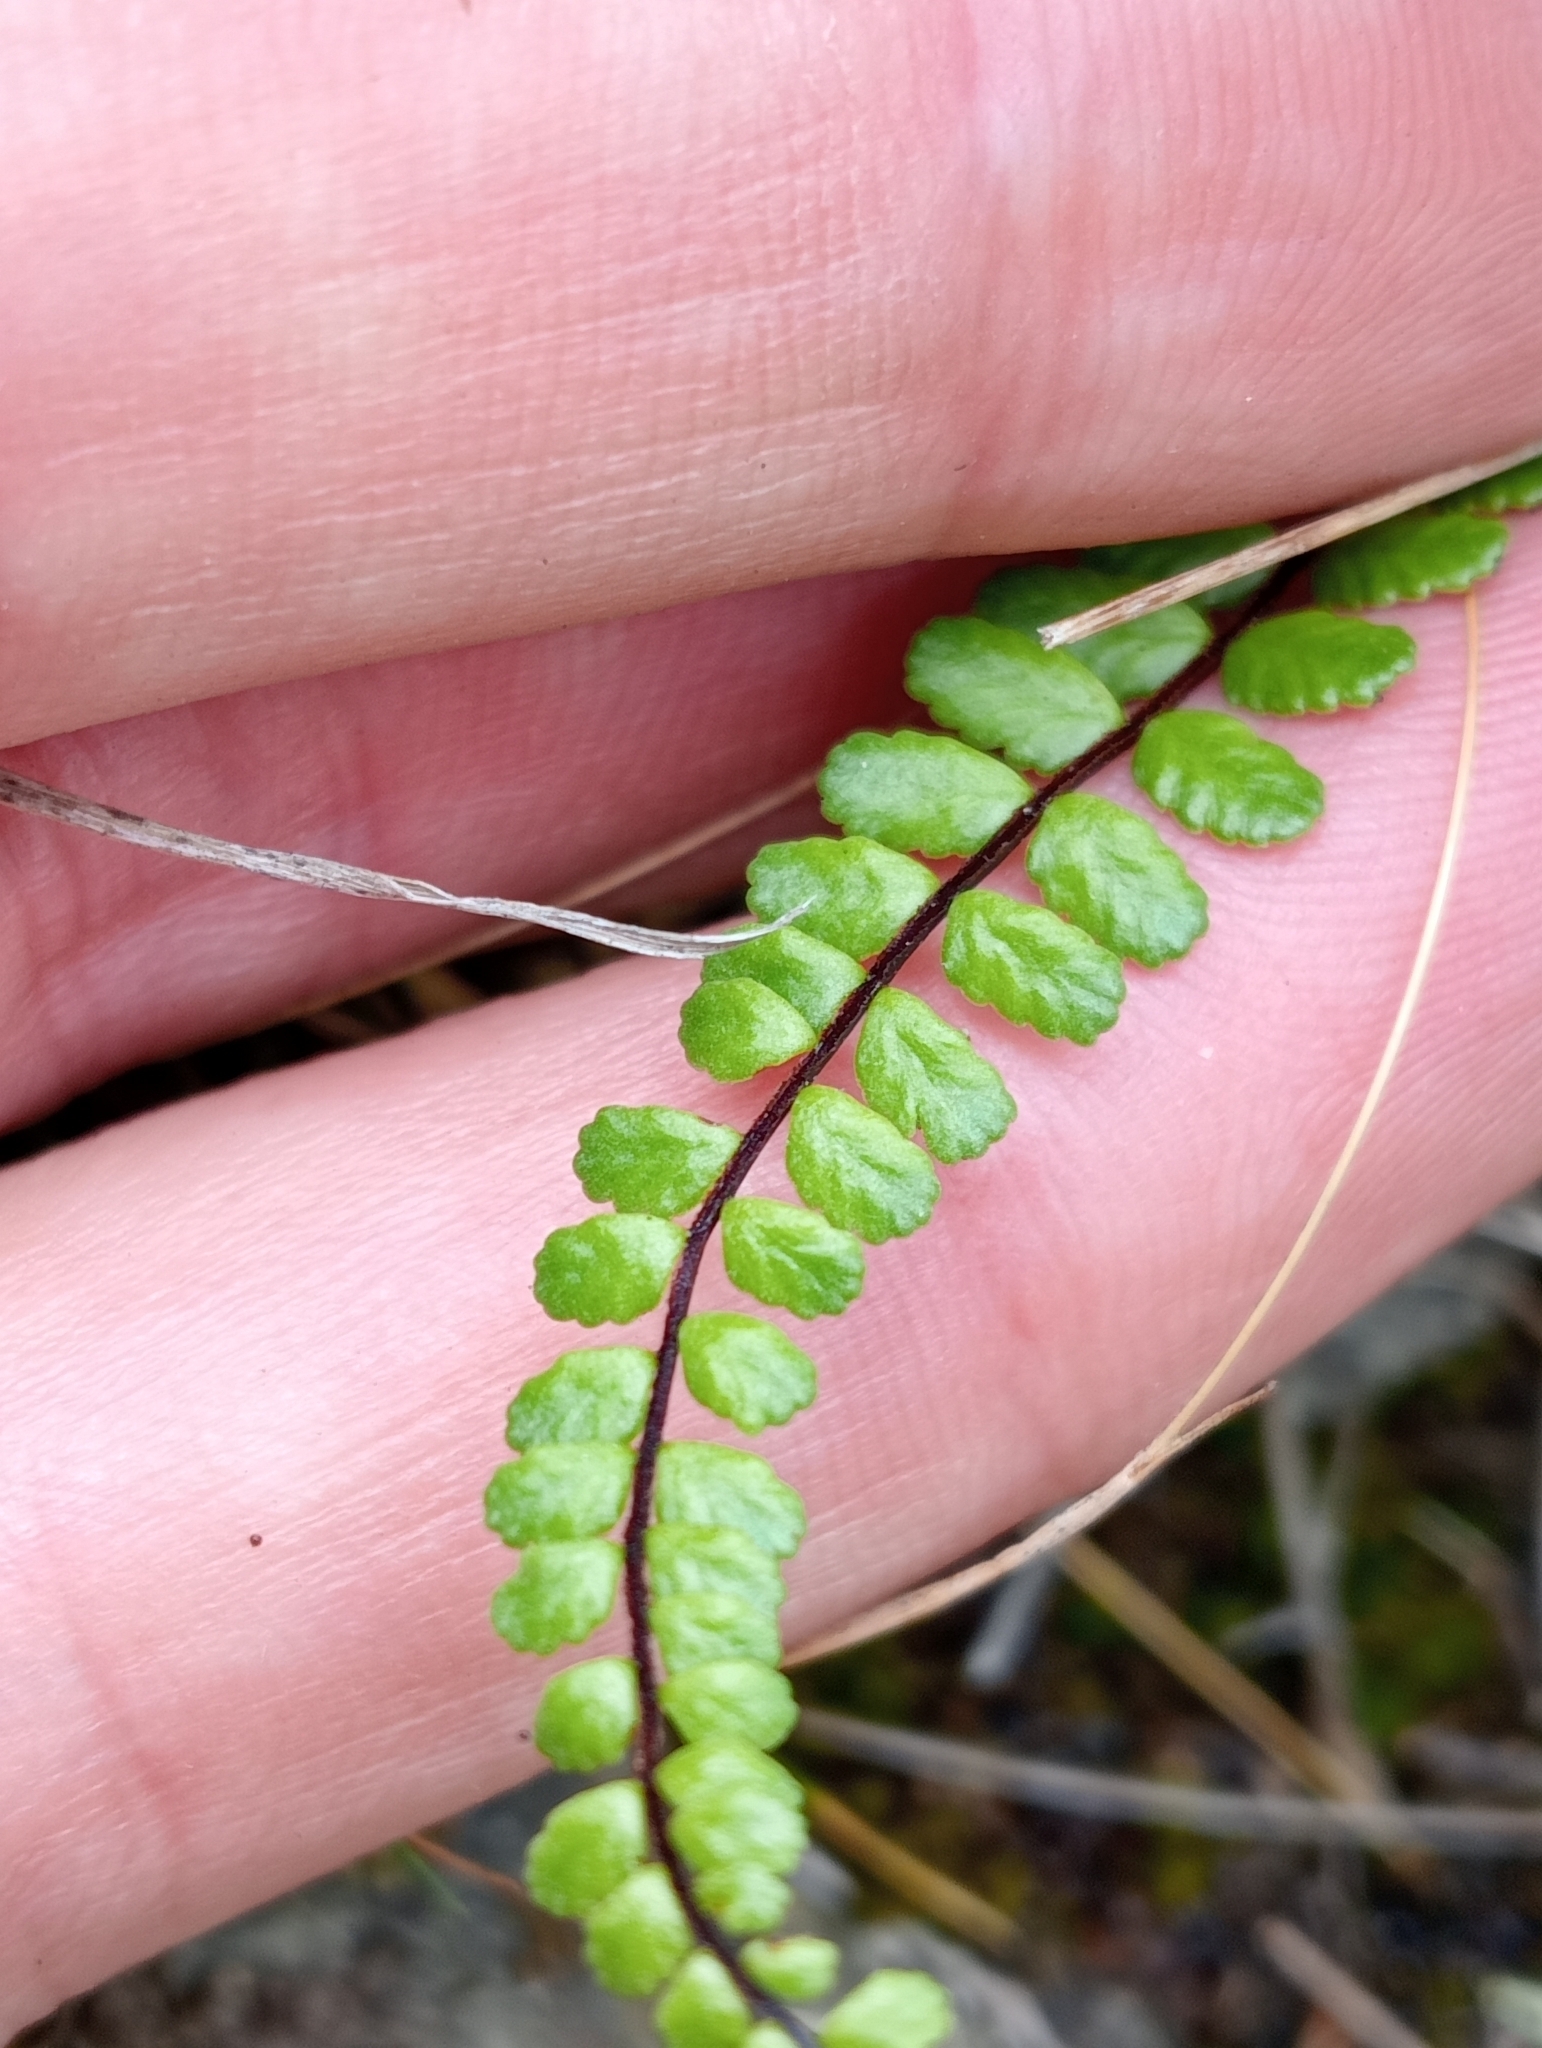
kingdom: Plantae
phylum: Tracheophyta
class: Polypodiopsida
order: Polypodiales
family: Aspleniaceae
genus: Asplenium
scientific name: Asplenium trichomanes
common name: Maidenhair spleenwort
